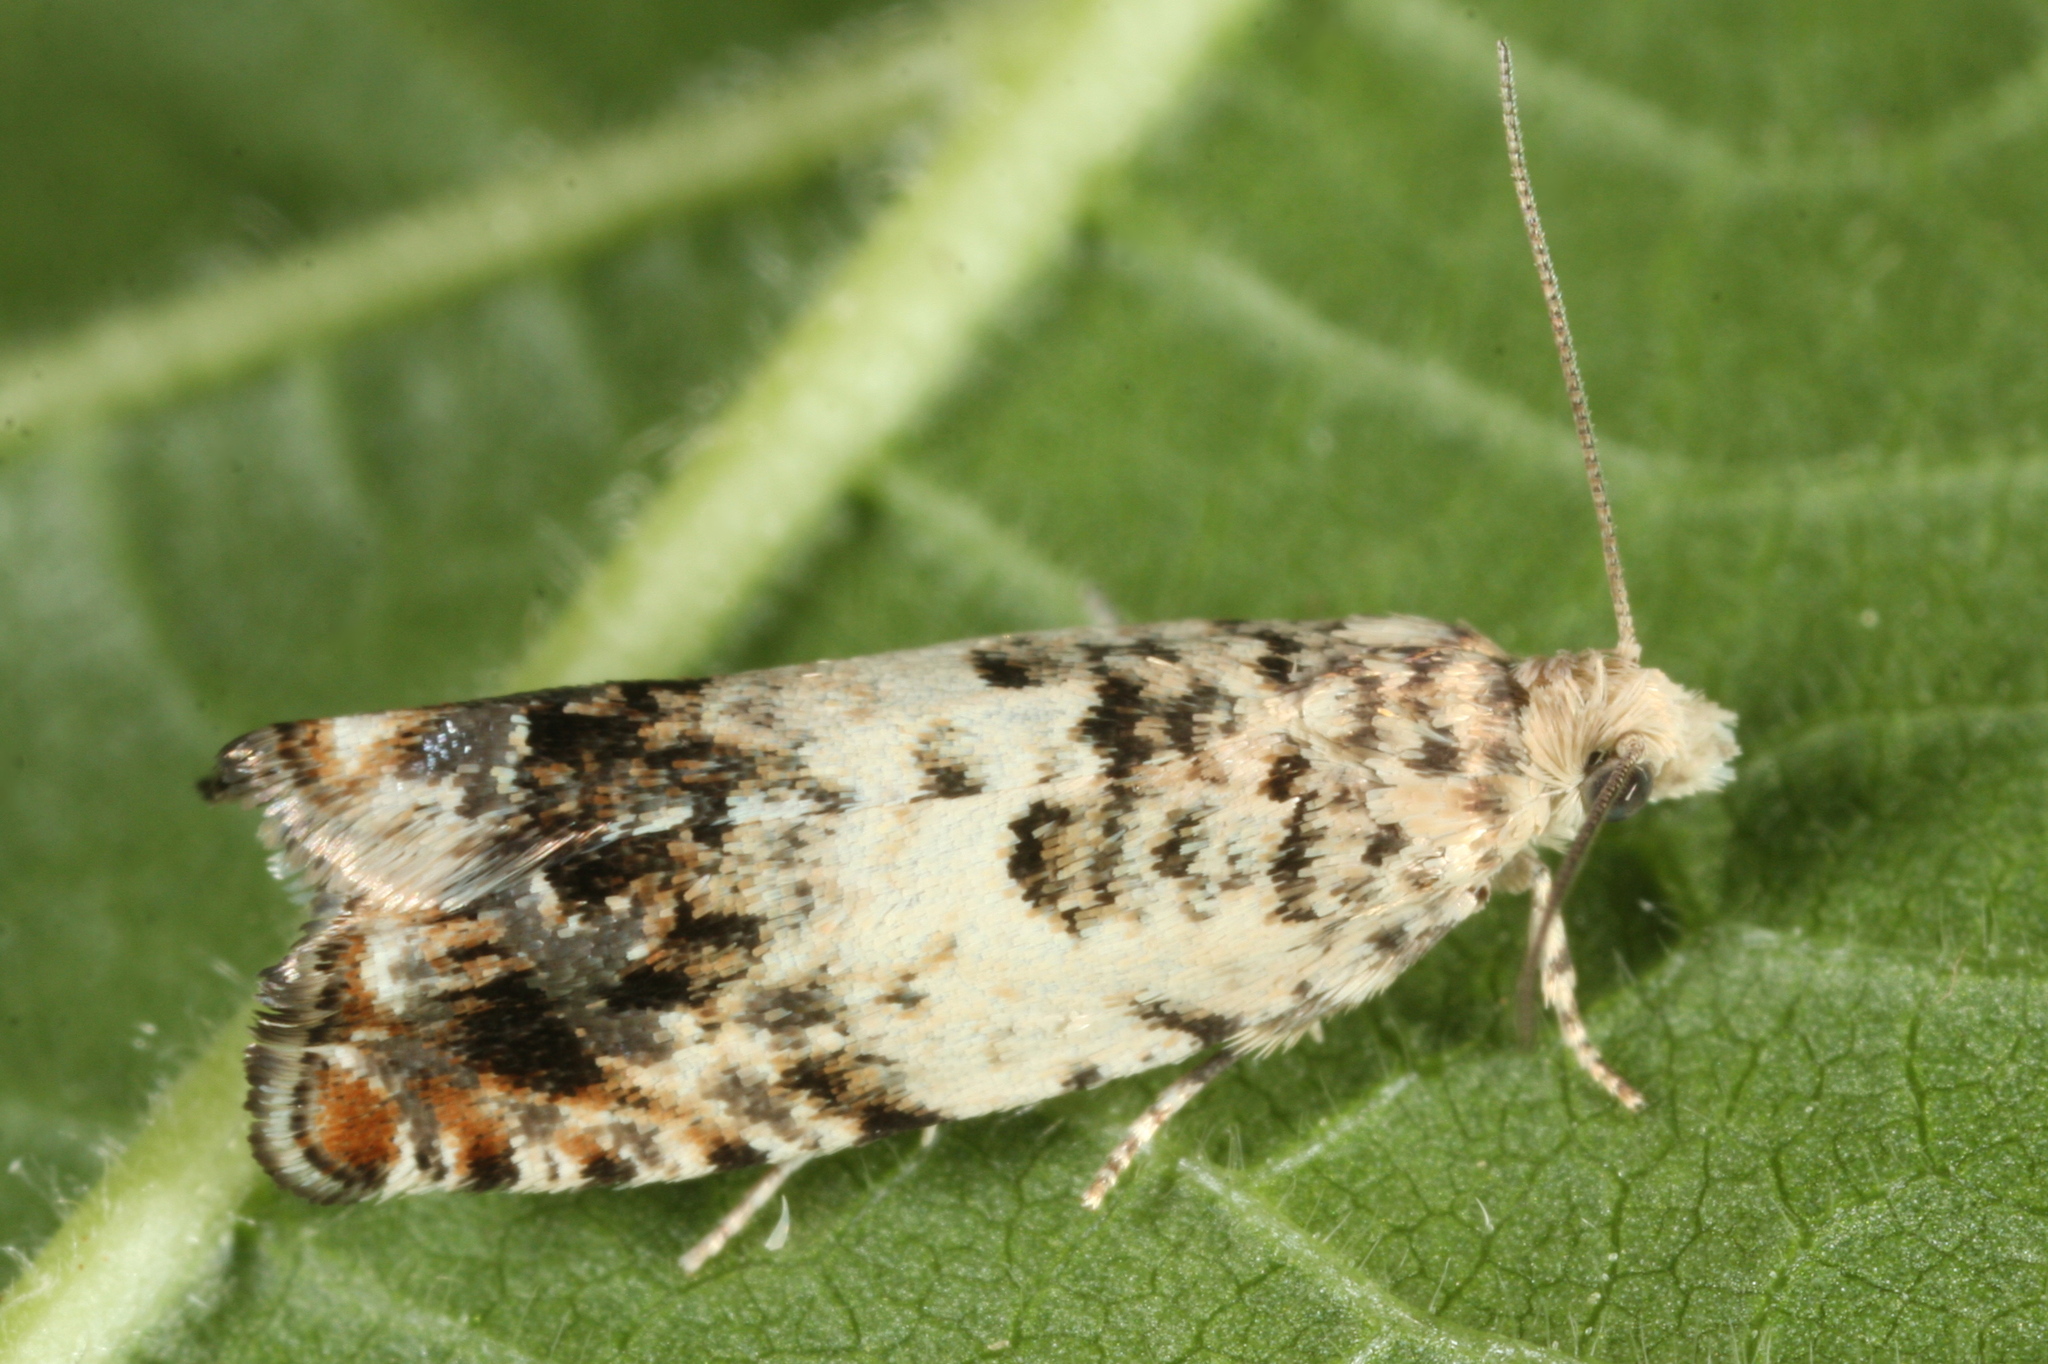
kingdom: Animalia
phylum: Arthropoda
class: Insecta
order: Lepidoptera
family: Tortricidae
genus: Epinotia
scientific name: Epinotia subocellana
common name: White sallow bell
